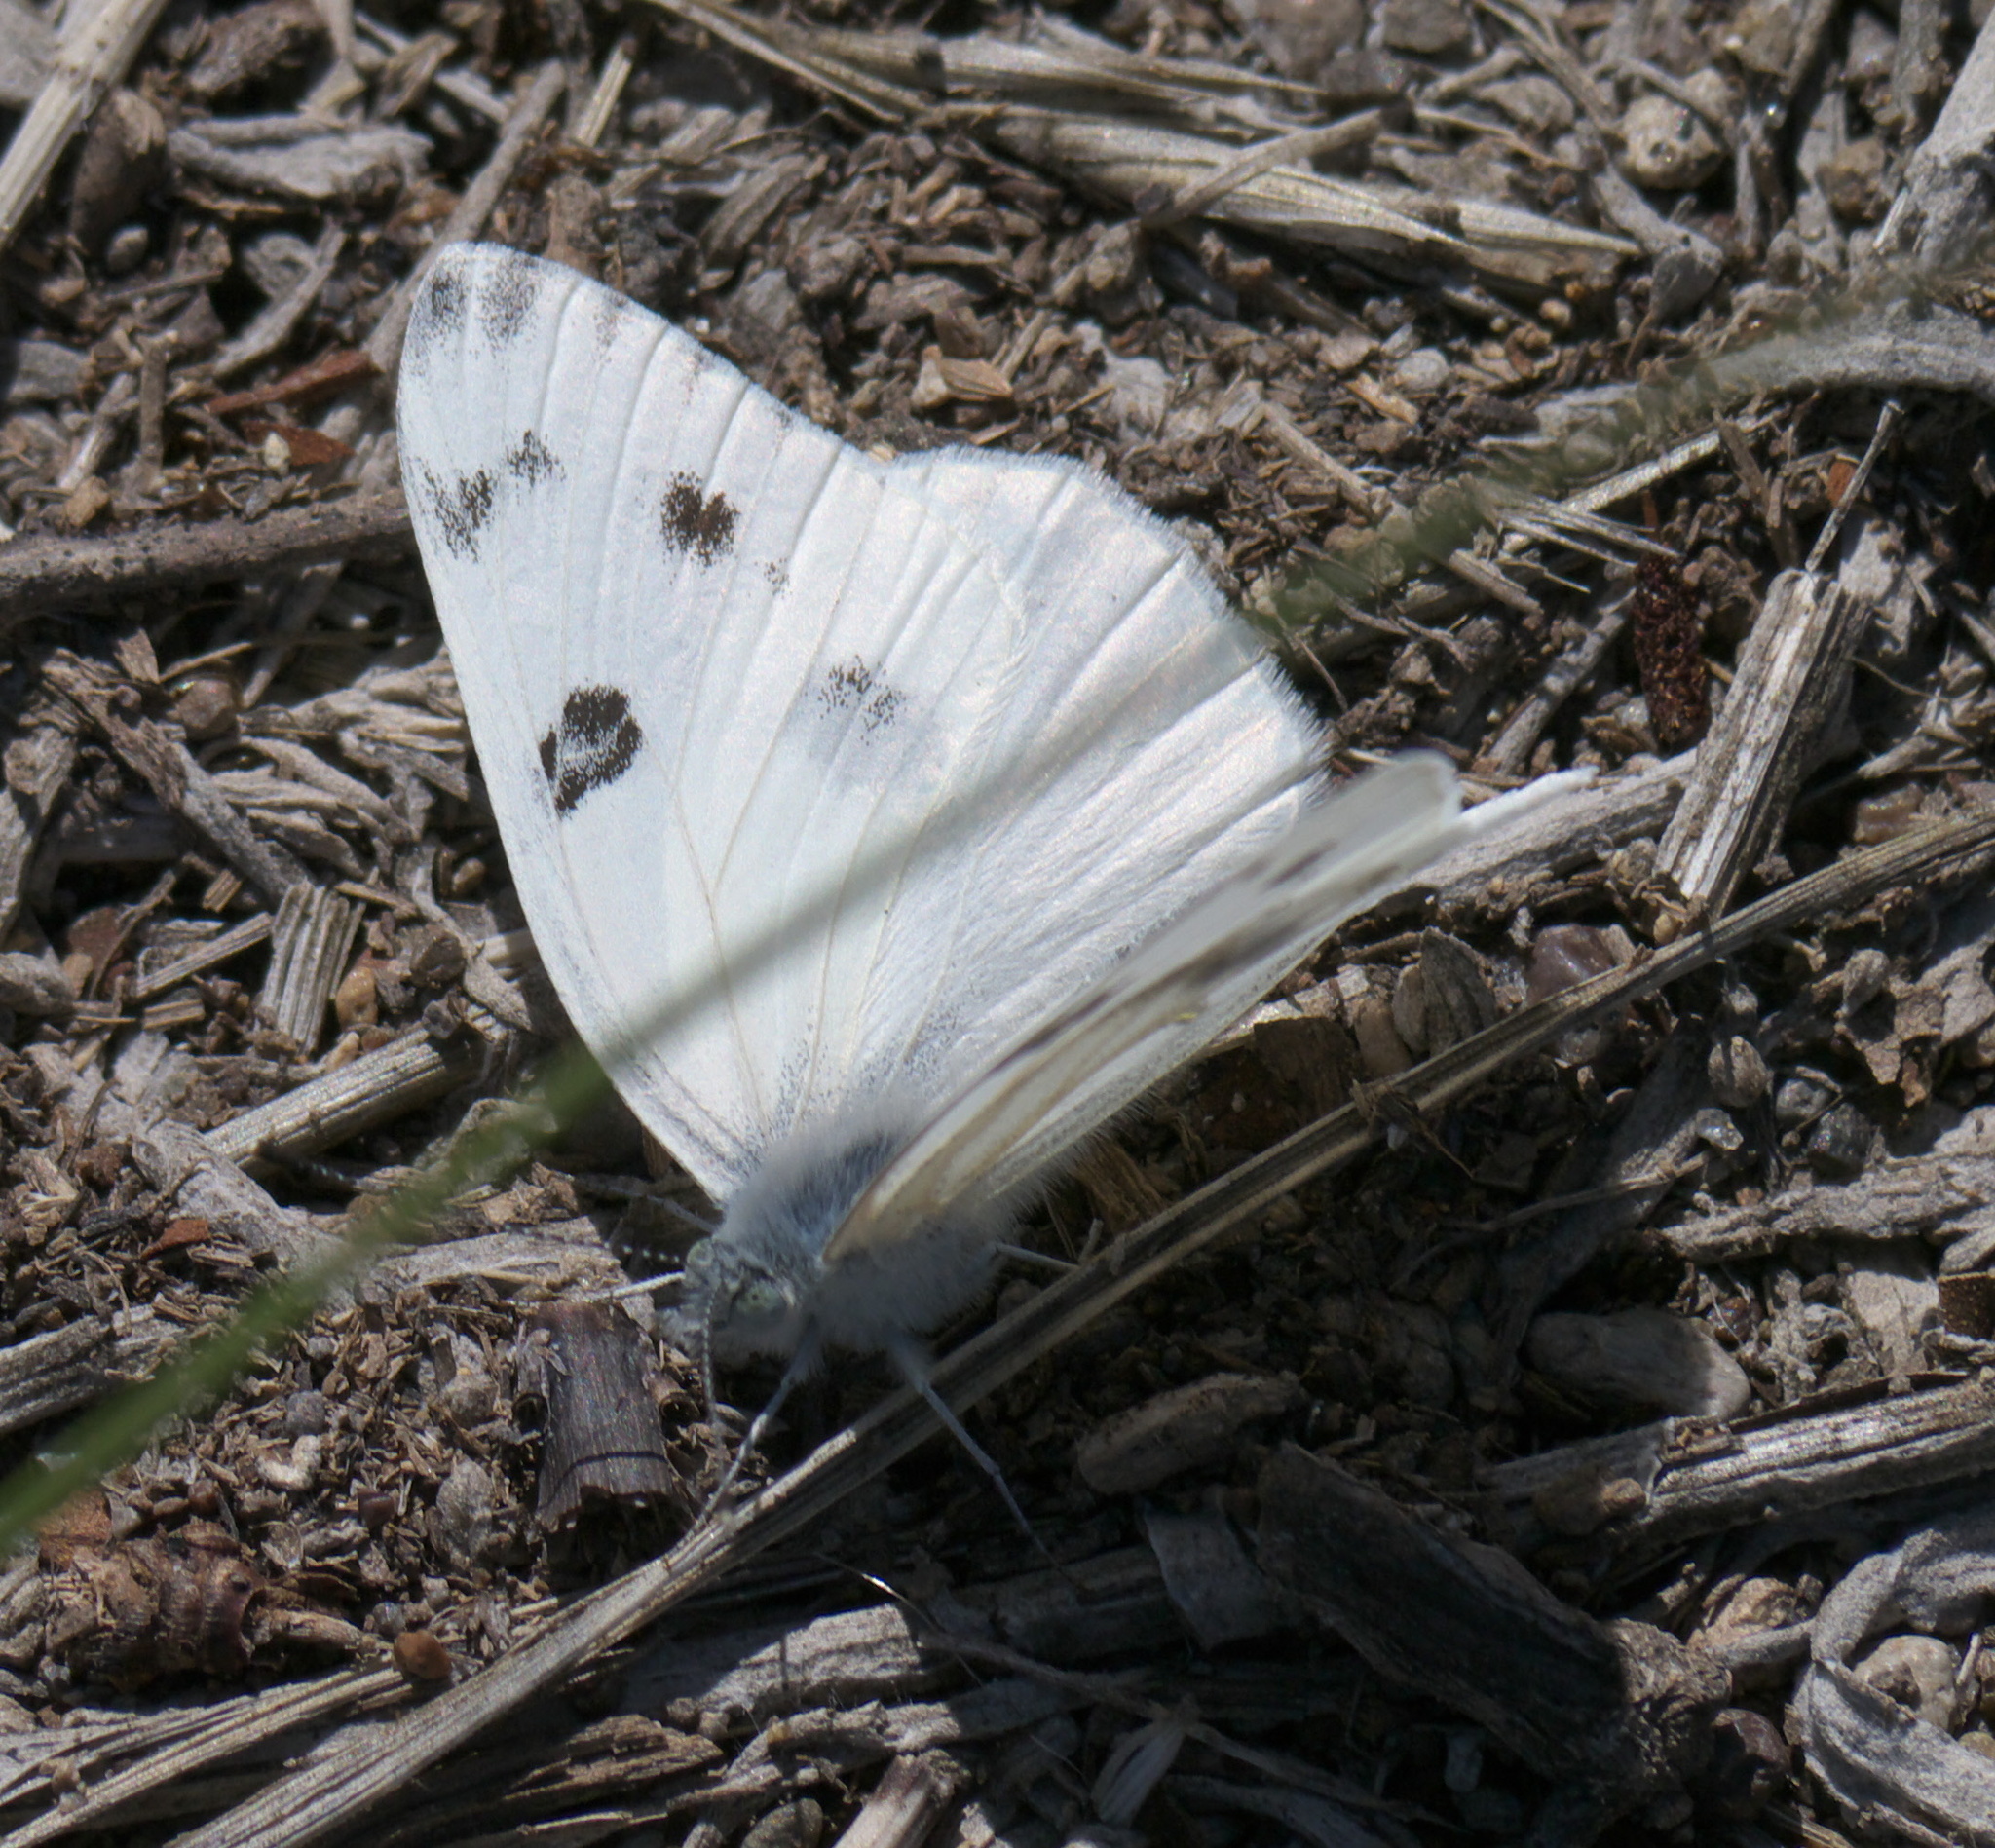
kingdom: Animalia
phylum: Arthropoda
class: Insecta
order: Lepidoptera
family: Pieridae
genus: Pontia
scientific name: Pontia protodice
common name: Checkered white
